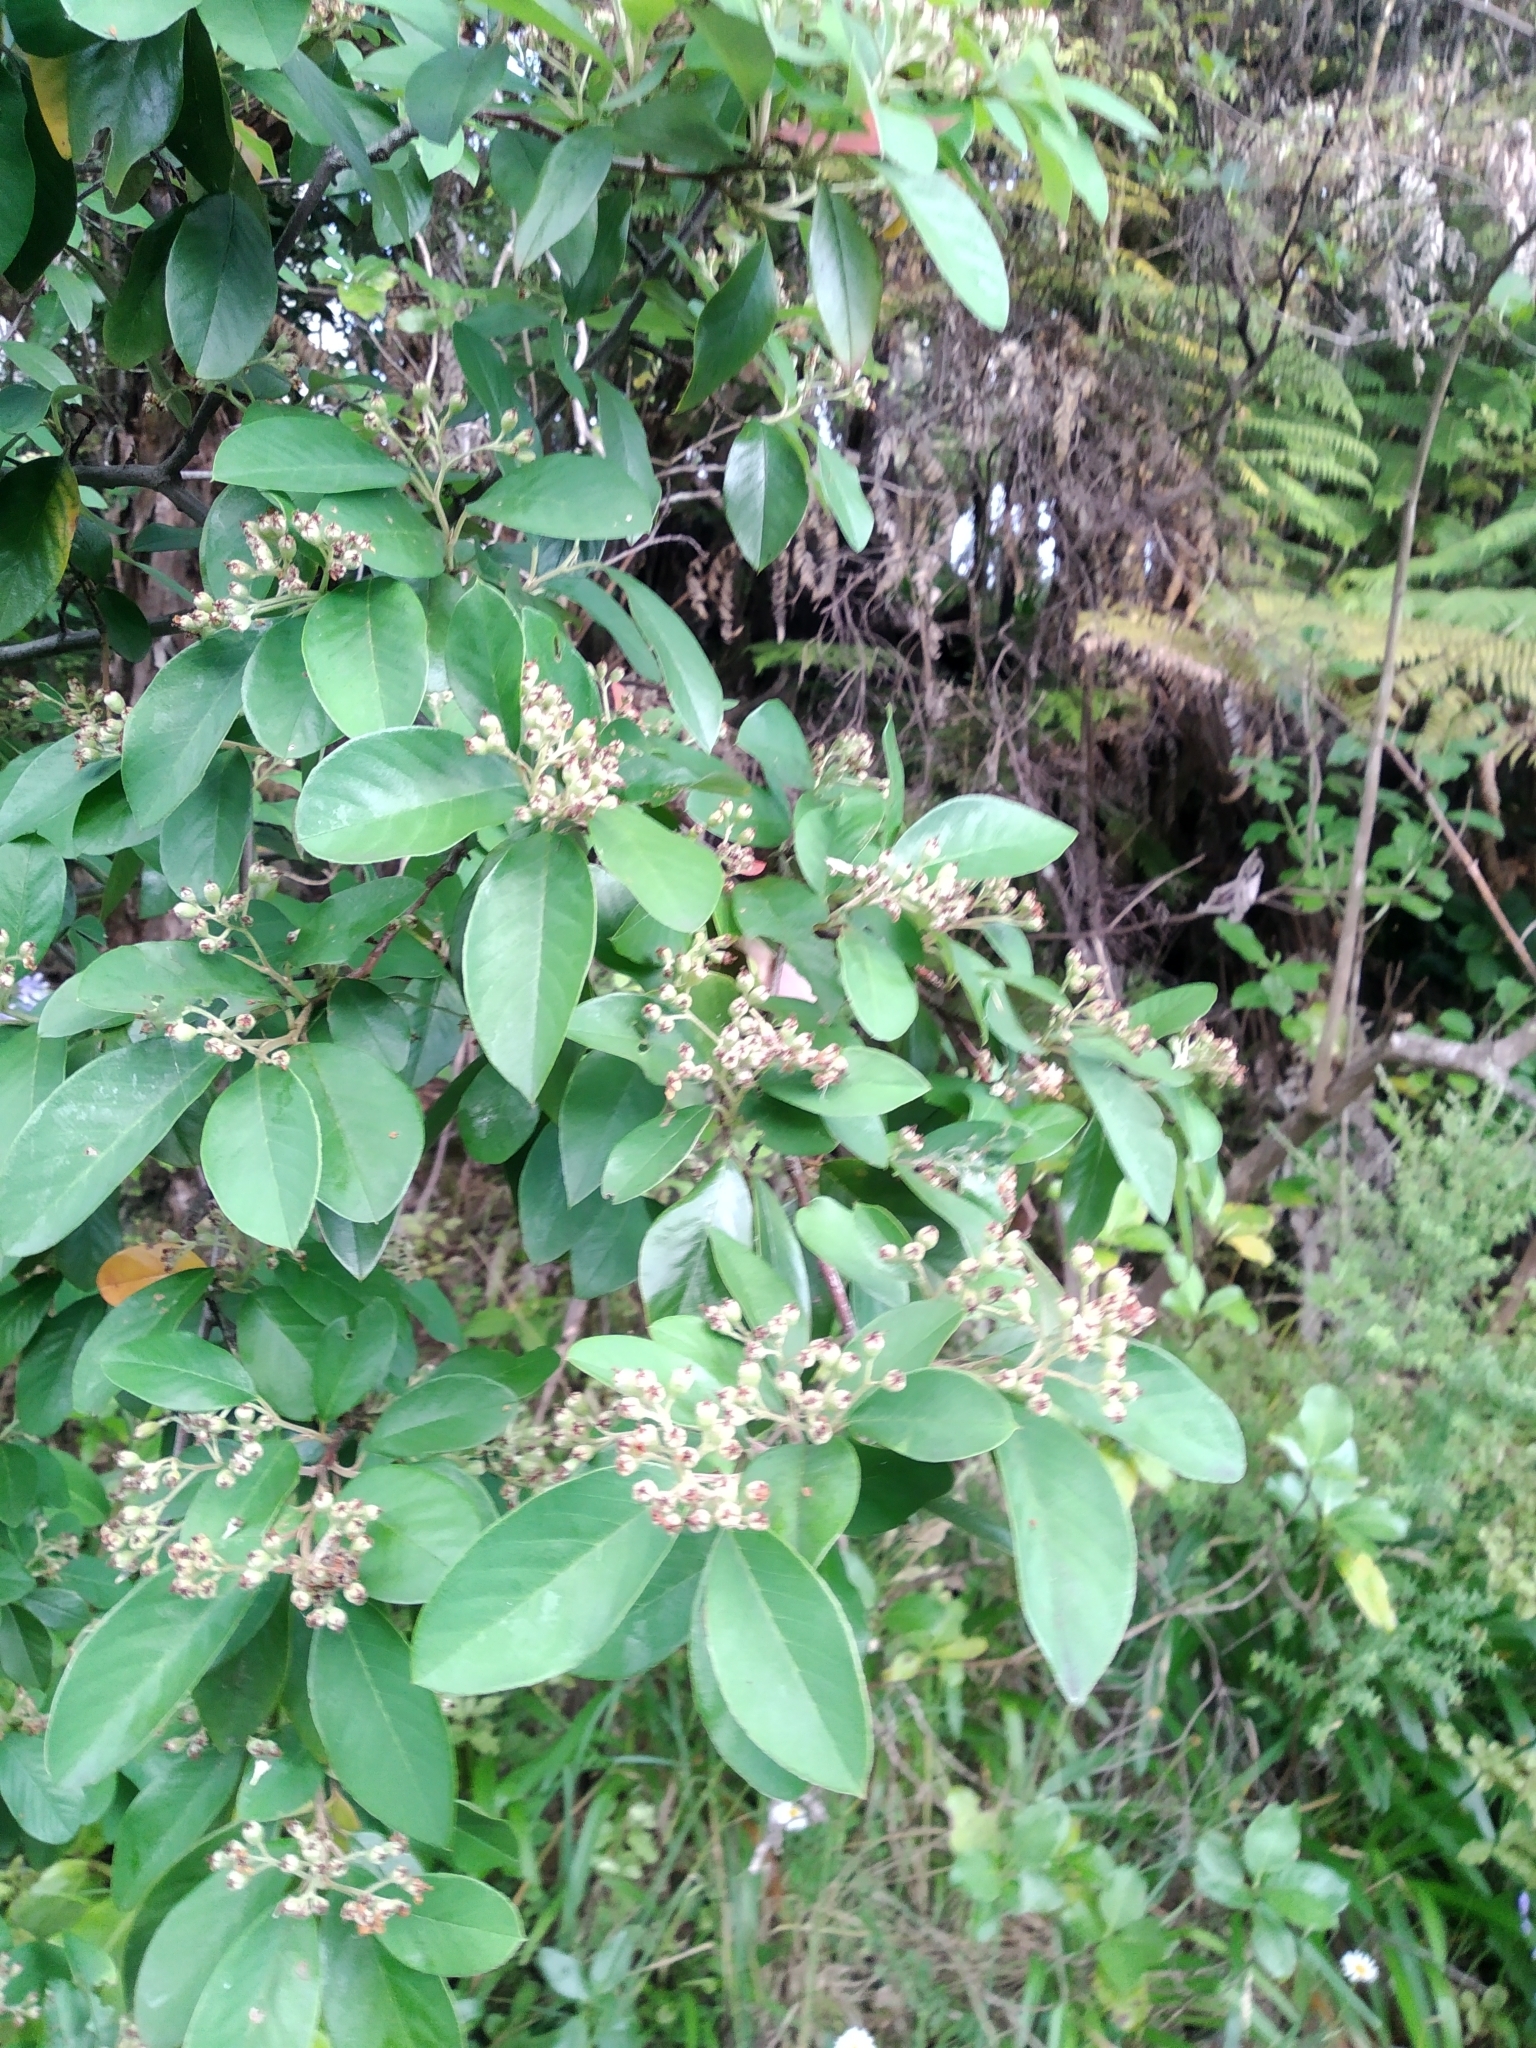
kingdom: Plantae
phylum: Tracheophyta
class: Magnoliopsida
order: Rosales
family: Rhamnaceae
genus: Pomaderris
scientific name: Pomaderris kumeraho
